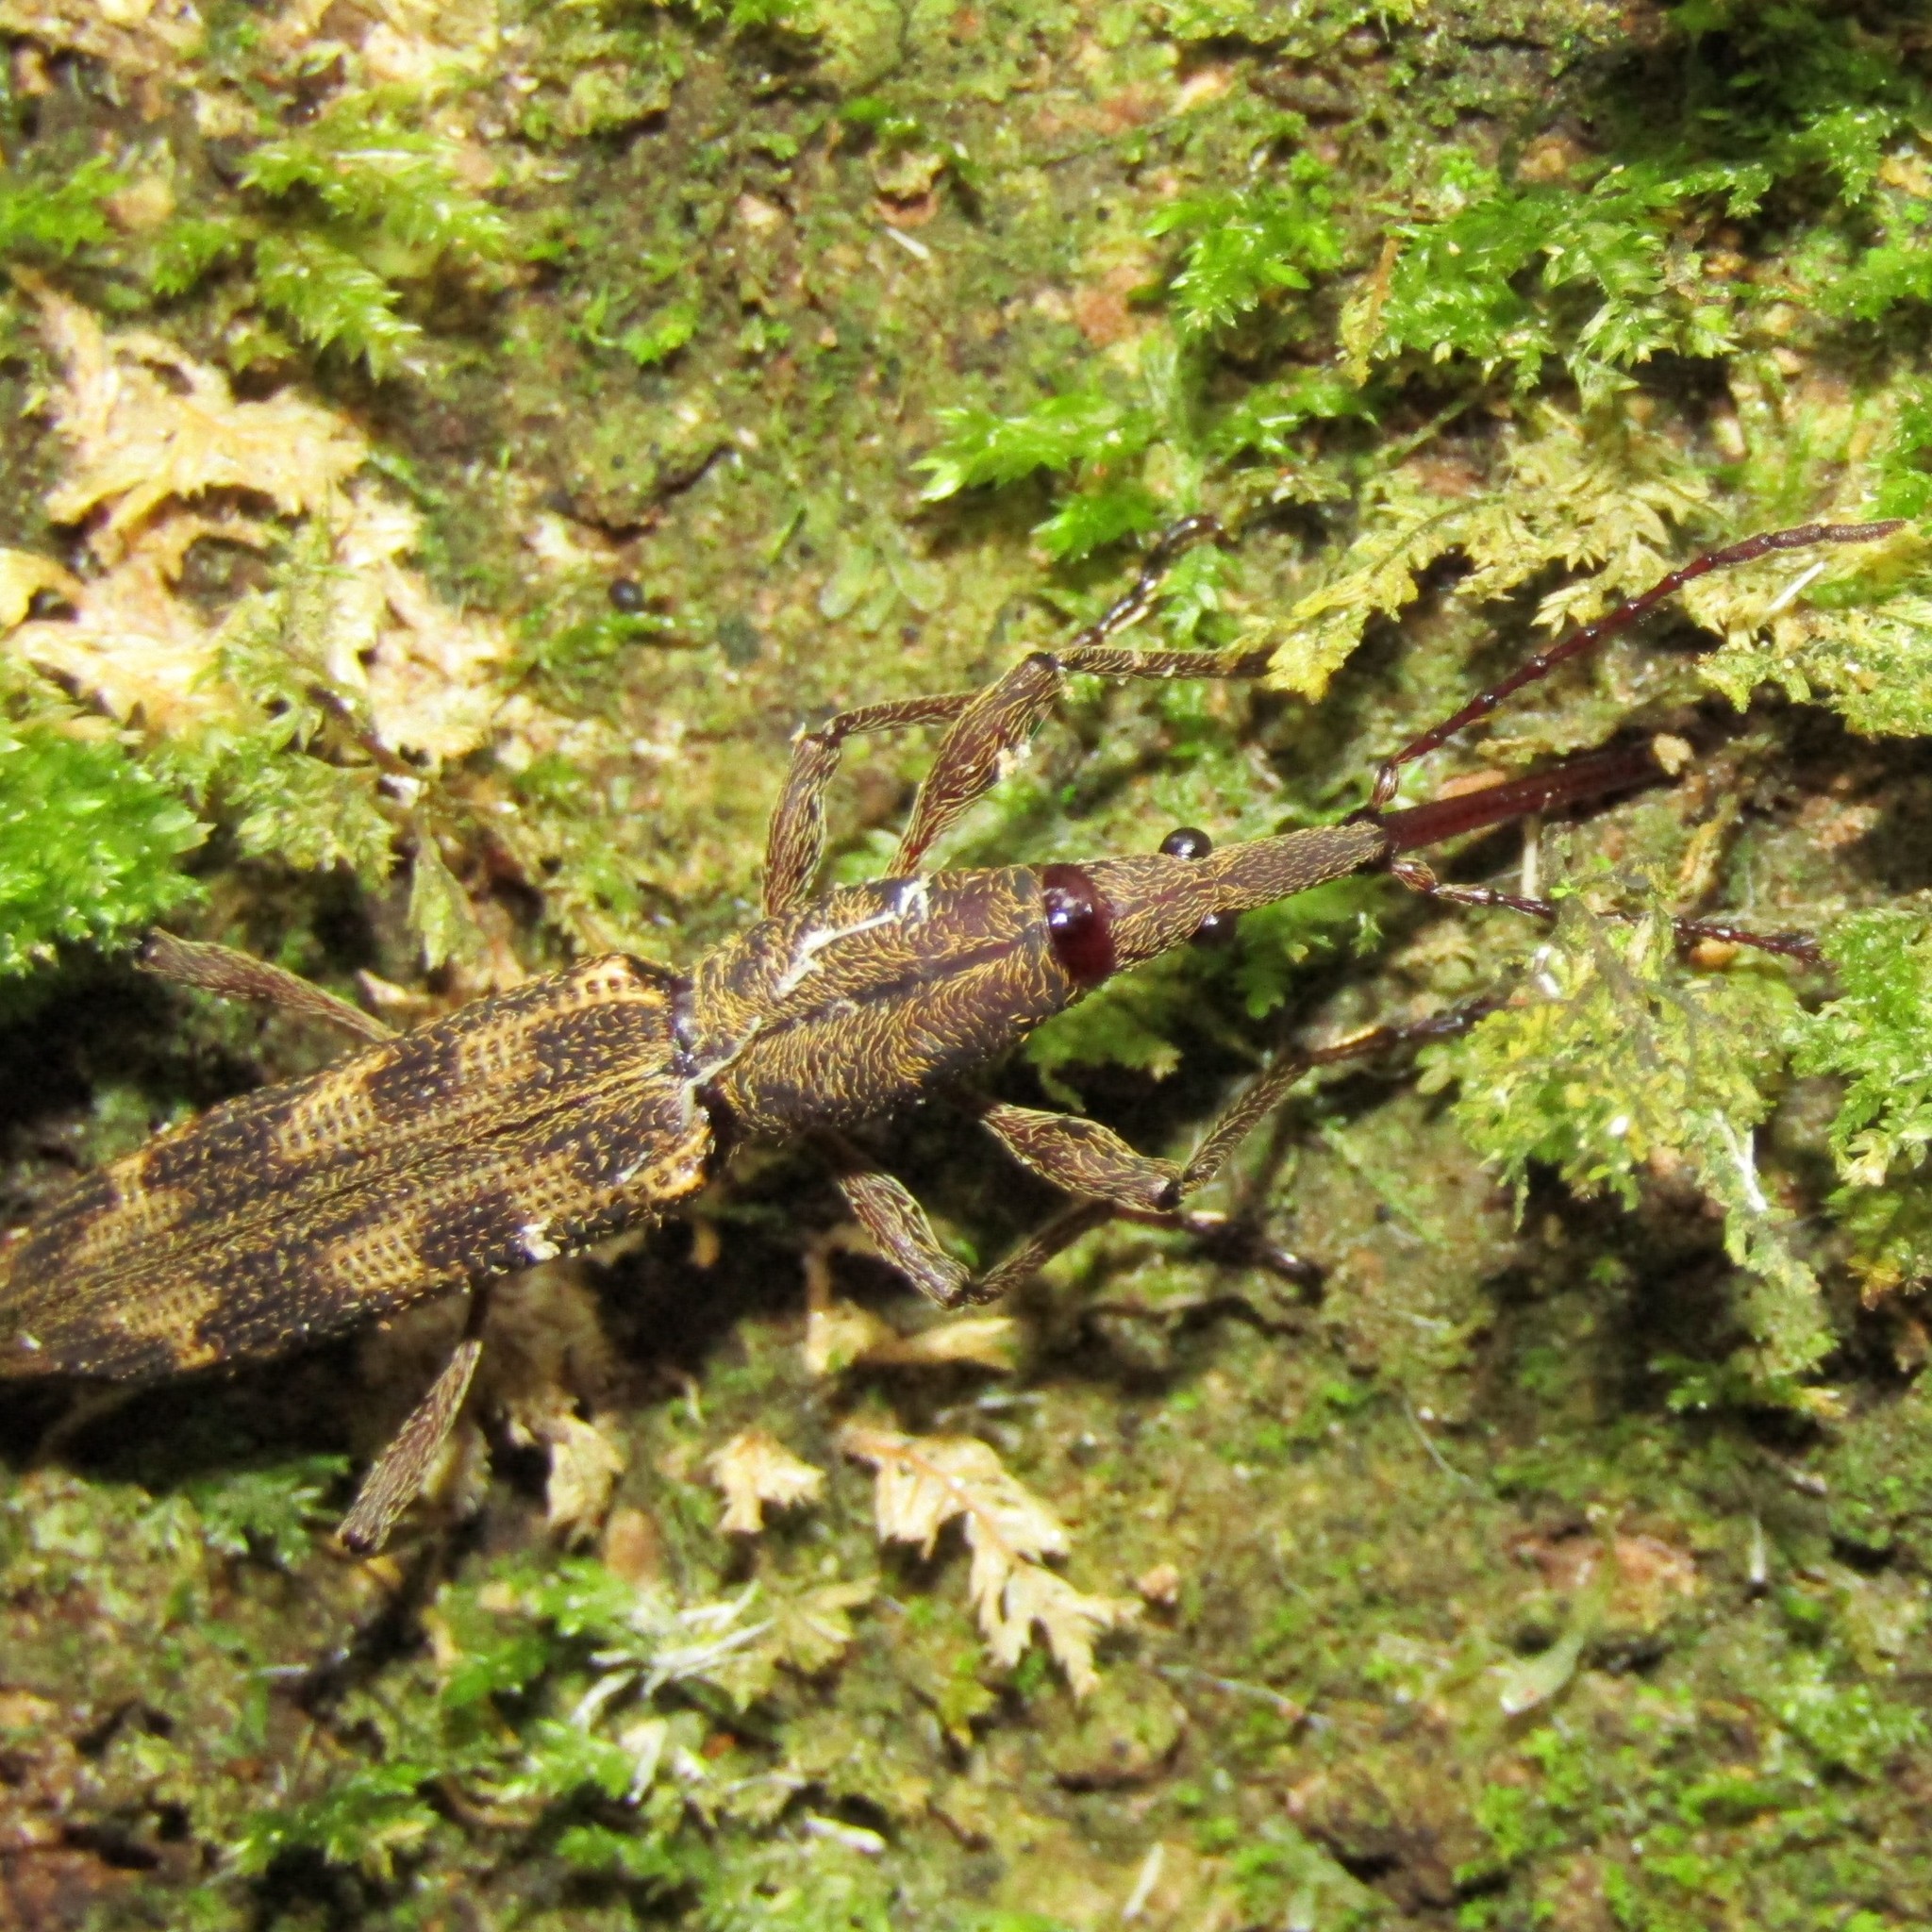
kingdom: Animalia
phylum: Arthropoda
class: Insecta
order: Coleoptera
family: Brentidae
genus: Lasiorhynchus
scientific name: Lasiorhynchus barbicornis
